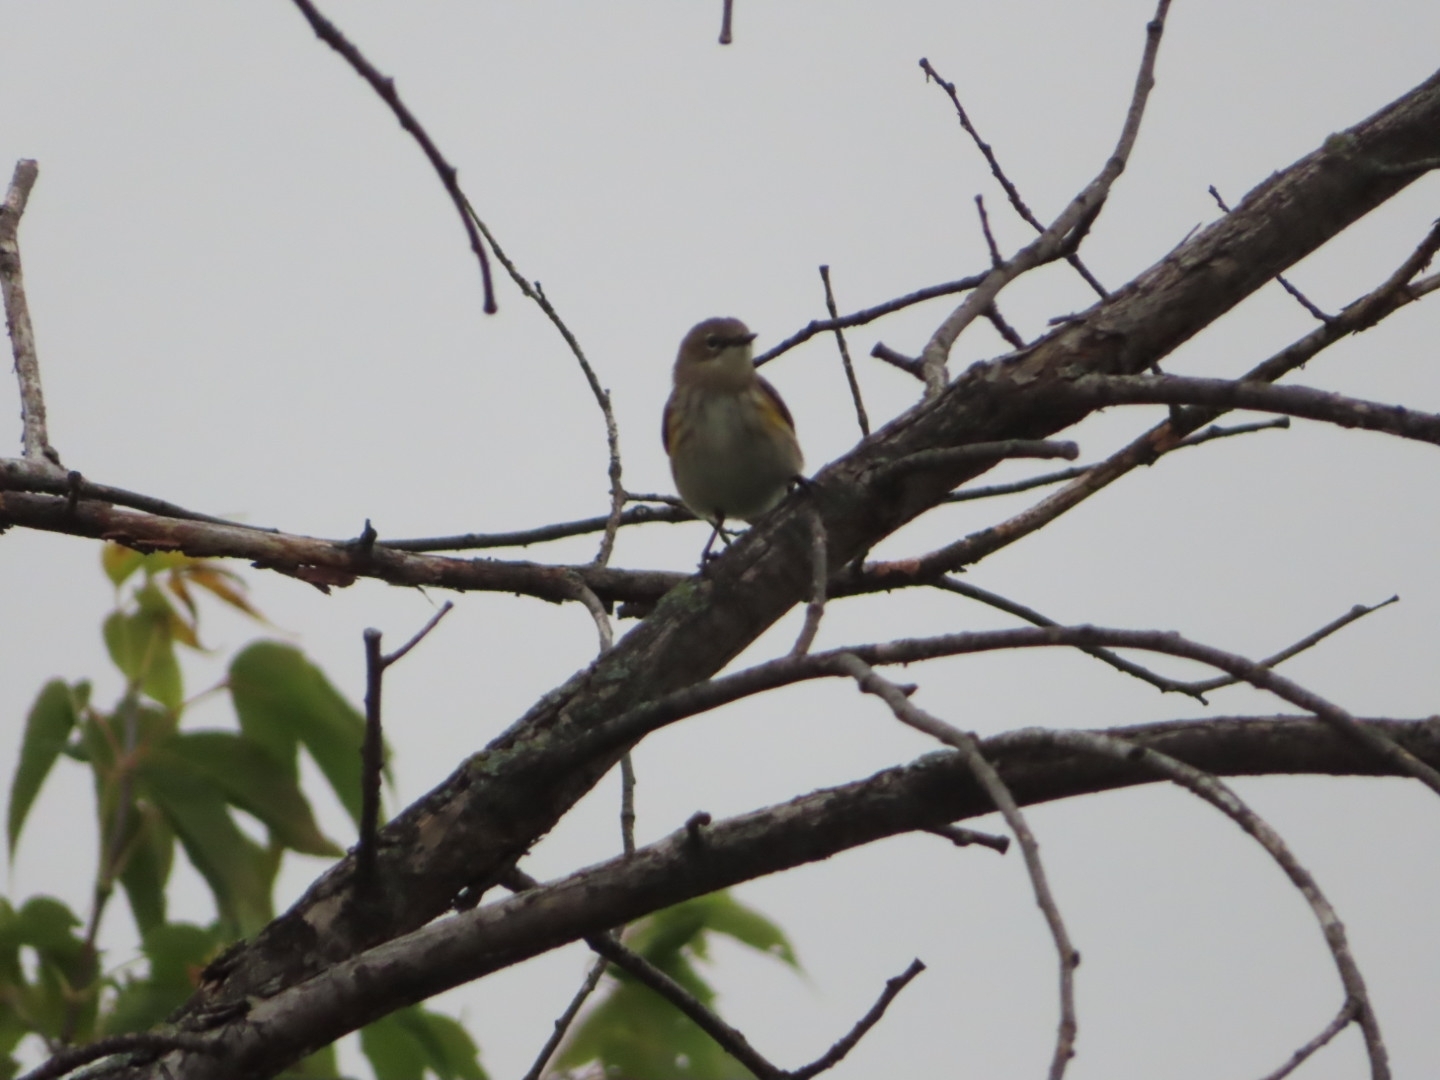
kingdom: Animalia
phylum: Chordata
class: Aves
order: Passeriformes
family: Parulidae
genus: Setophaga
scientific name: Setophaga coronata
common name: Myrtle warbler
